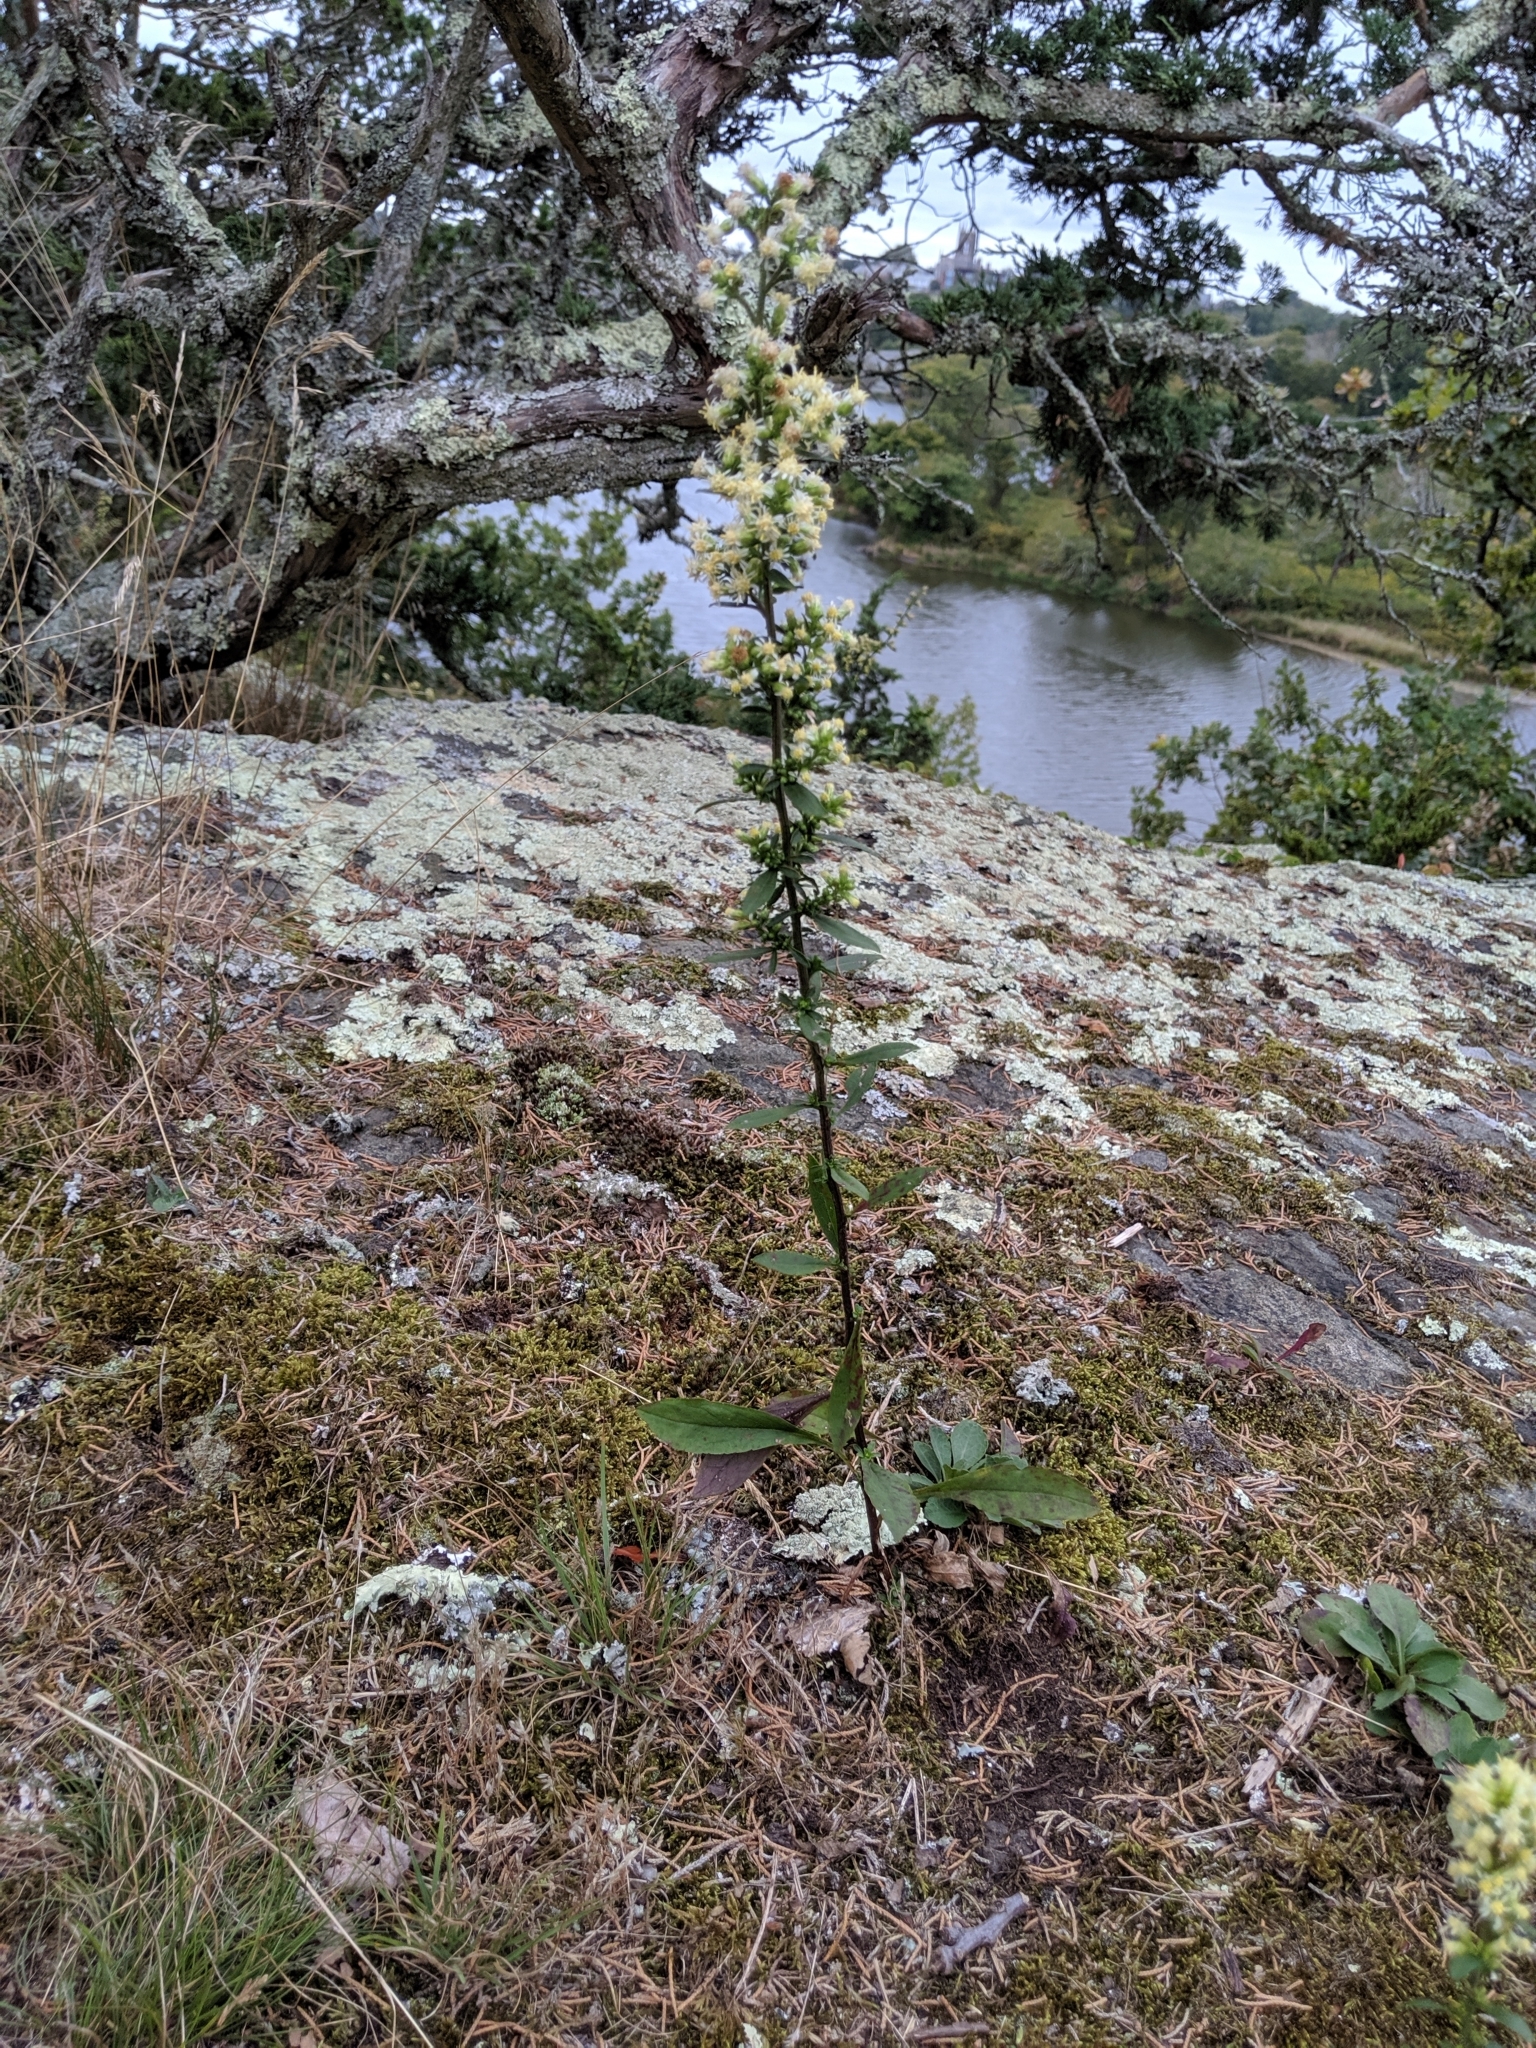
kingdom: Plantae
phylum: Tracheophyta
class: Magnoliopsida
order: Asterales
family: Asteraceae
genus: Solidago
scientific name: Solidago bicolor
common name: Silverrod
